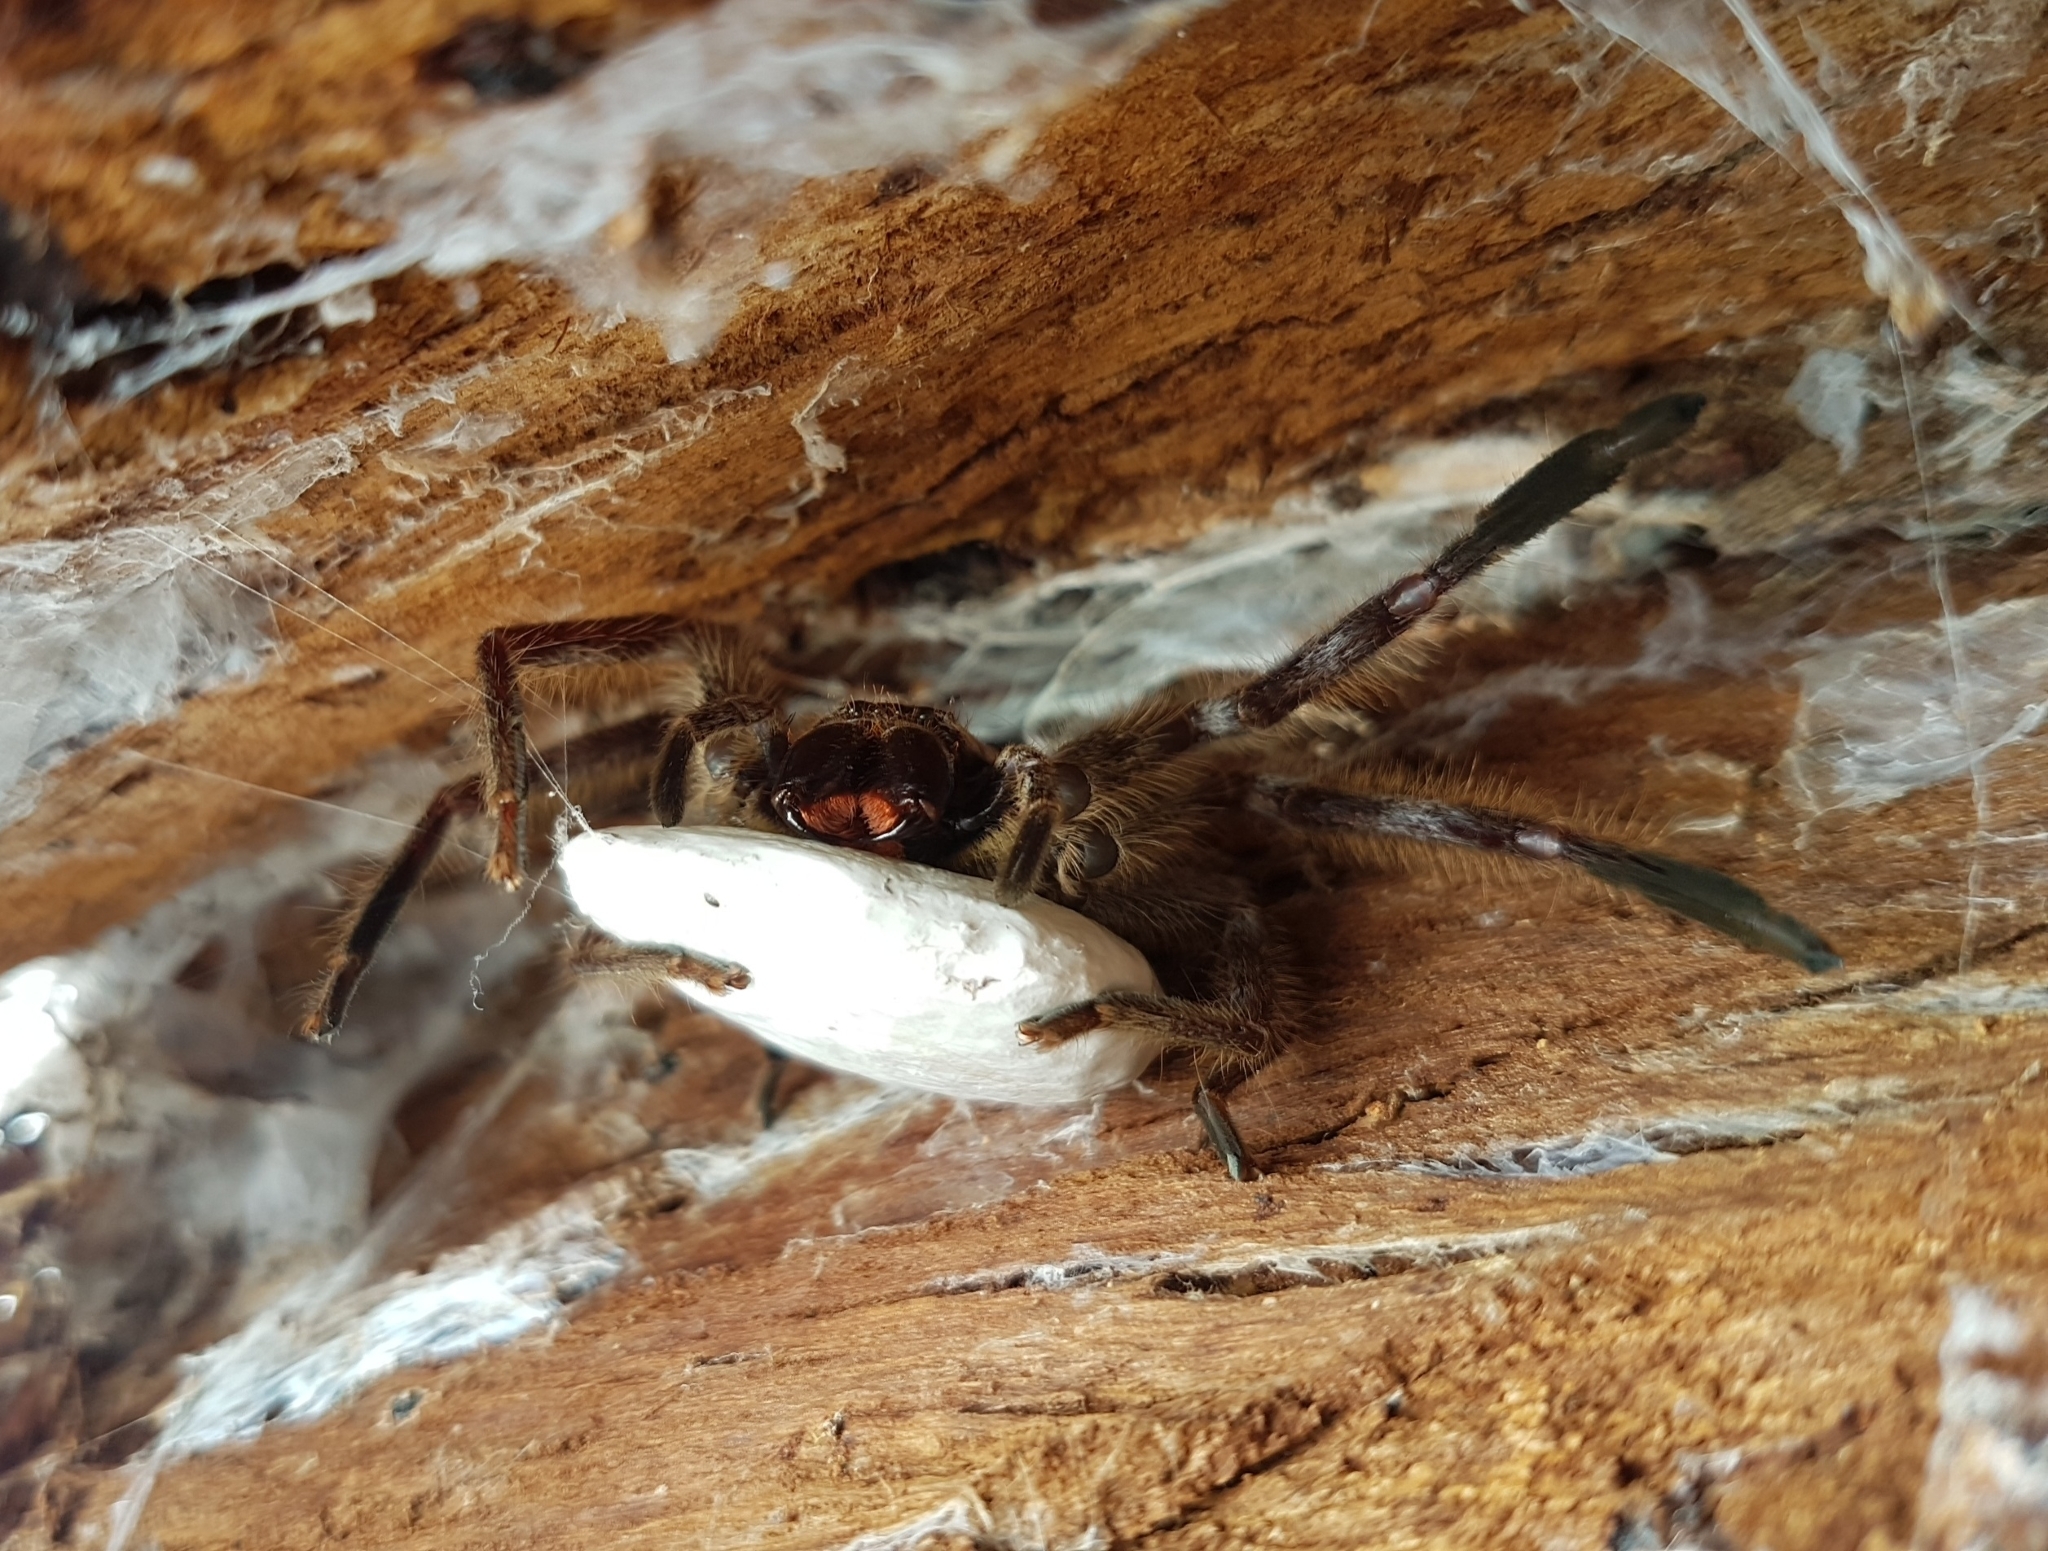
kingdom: Animalia
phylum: Arthropoda
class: Arachnida
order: Araneae
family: Sparassidae
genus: Isopeda
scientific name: Isopeda montana
